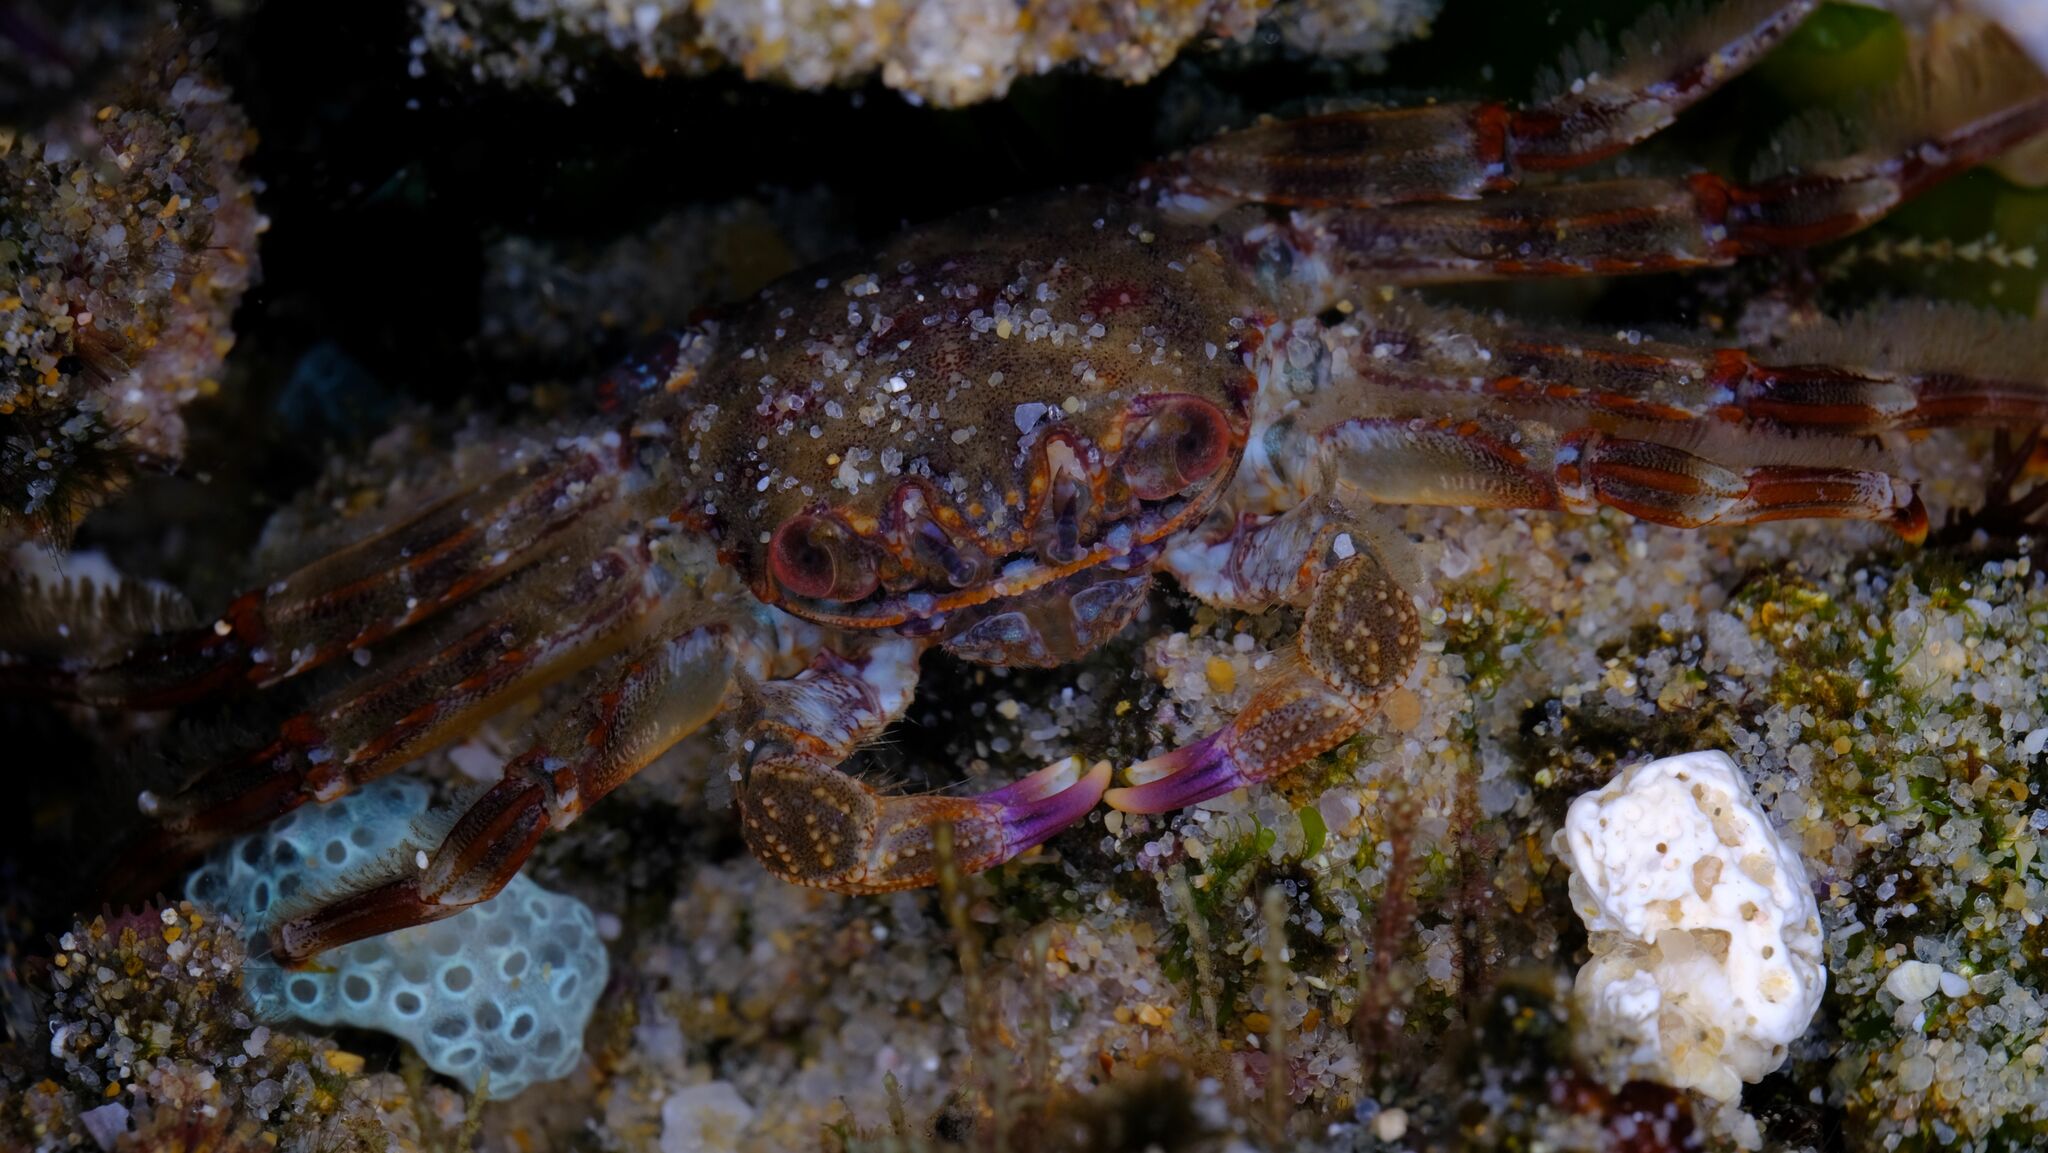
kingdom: Animalia
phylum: Arthropoda
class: Malacostraca
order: Decapoda
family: Plagusiidae
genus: Guinusia
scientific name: Guinusia chabrus
